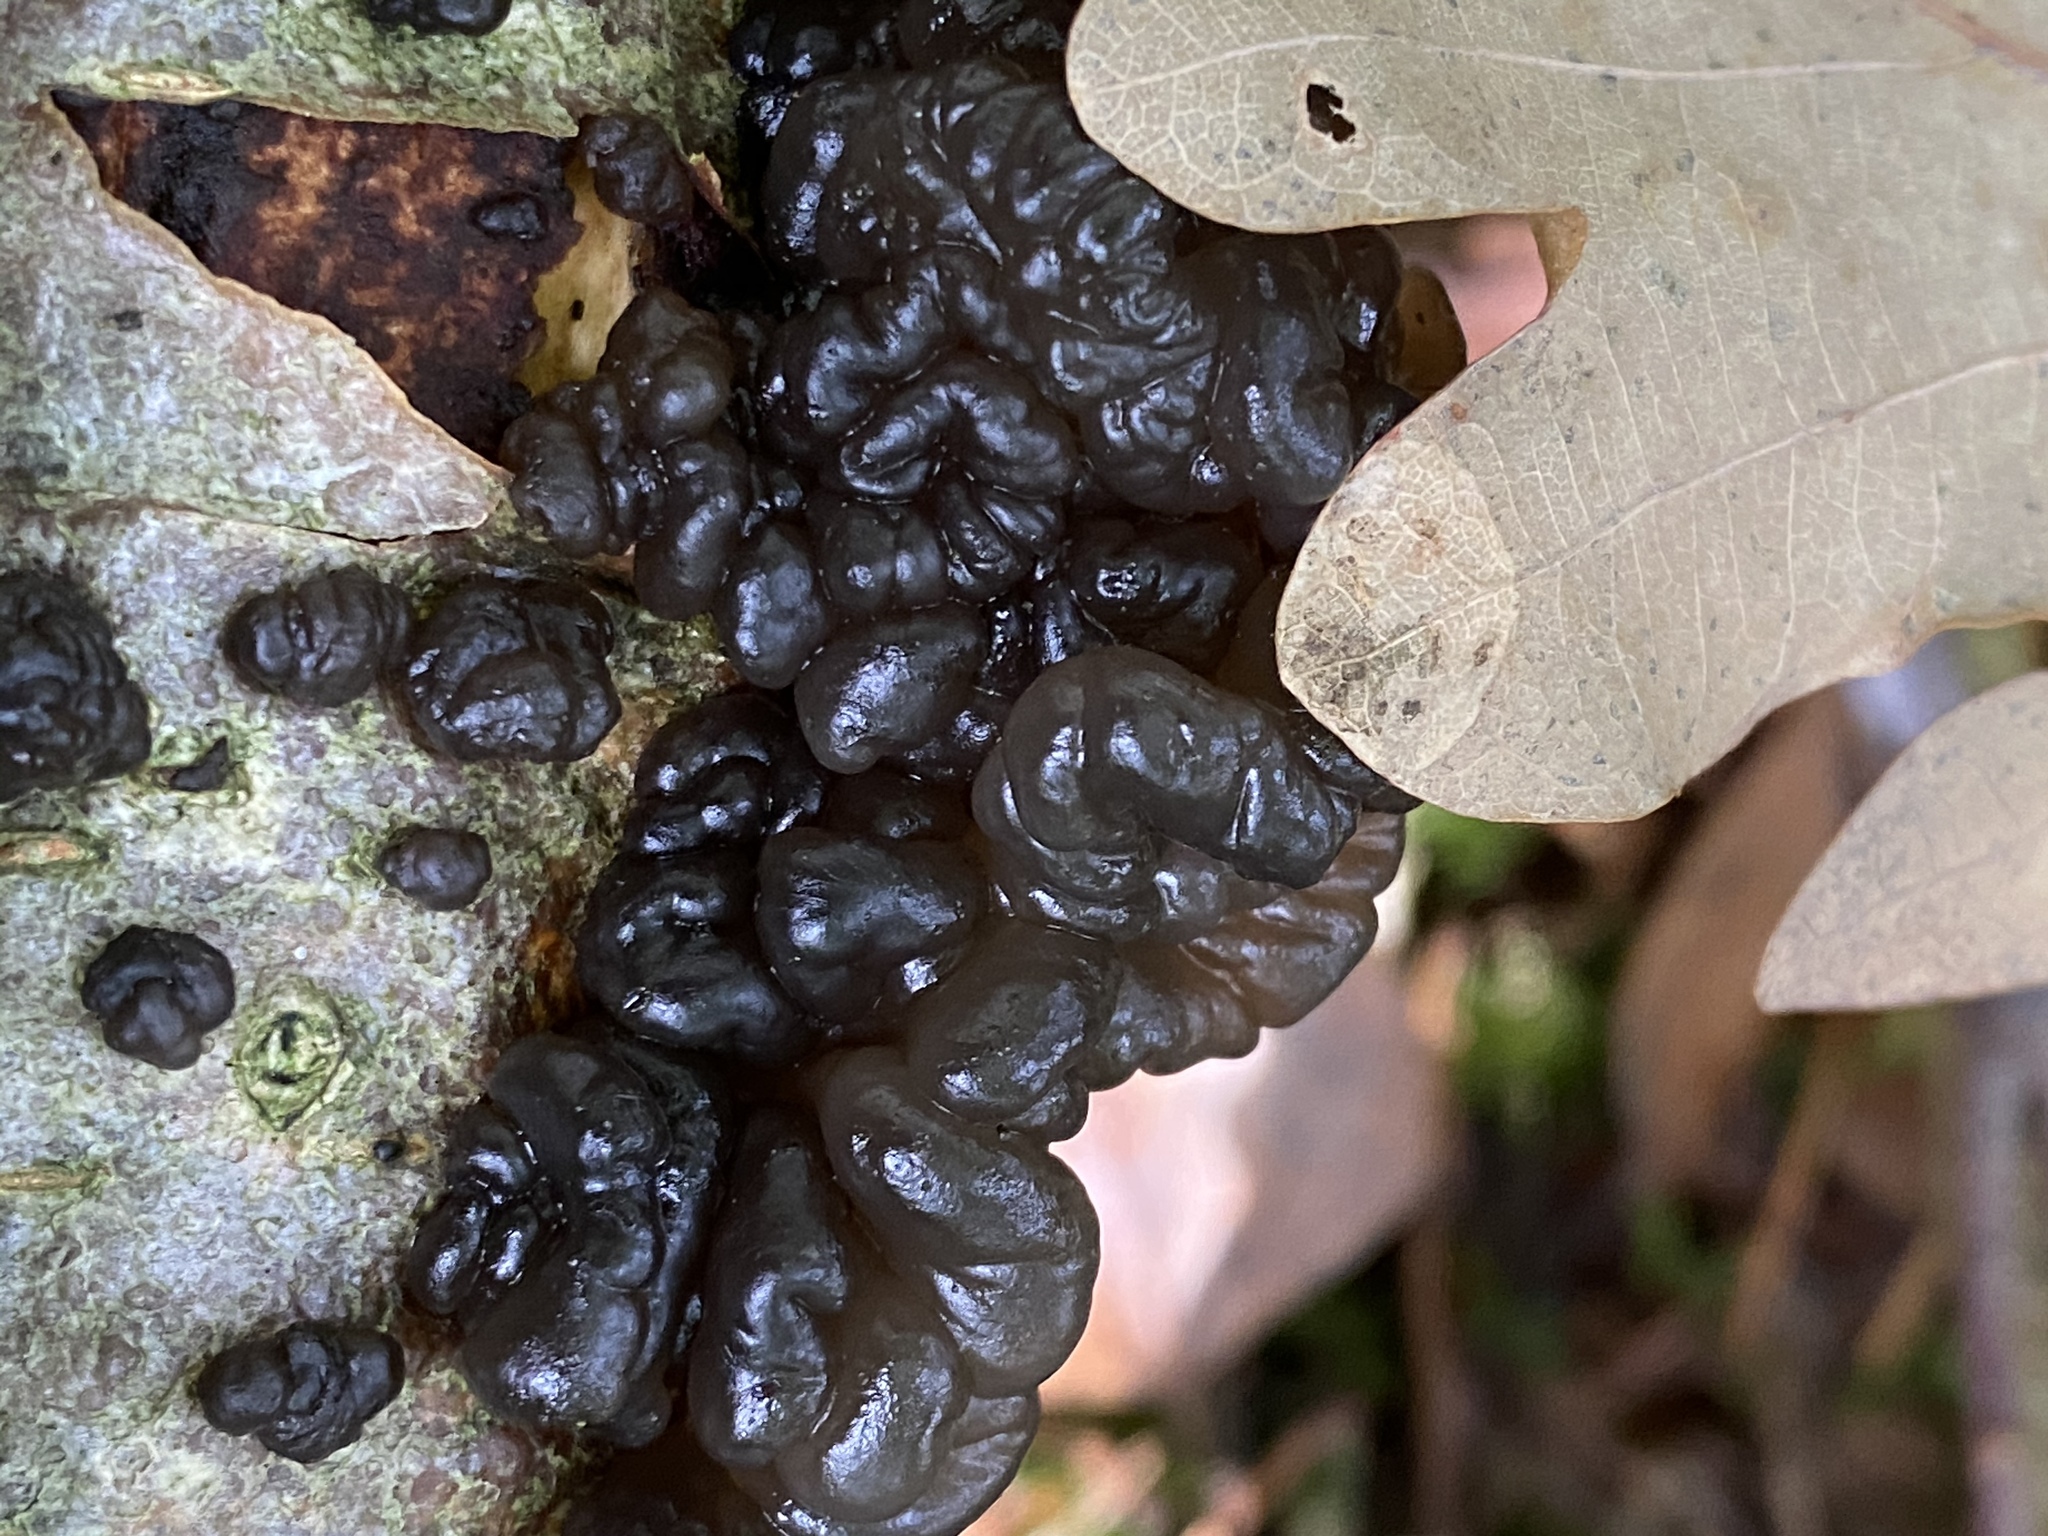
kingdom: Fungi
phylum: Basidiomycota
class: Agaricomycetes
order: Auriculariales
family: Auriculariaceae
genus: Exidia
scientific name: Exidia glandulosa
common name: Witches' butter
